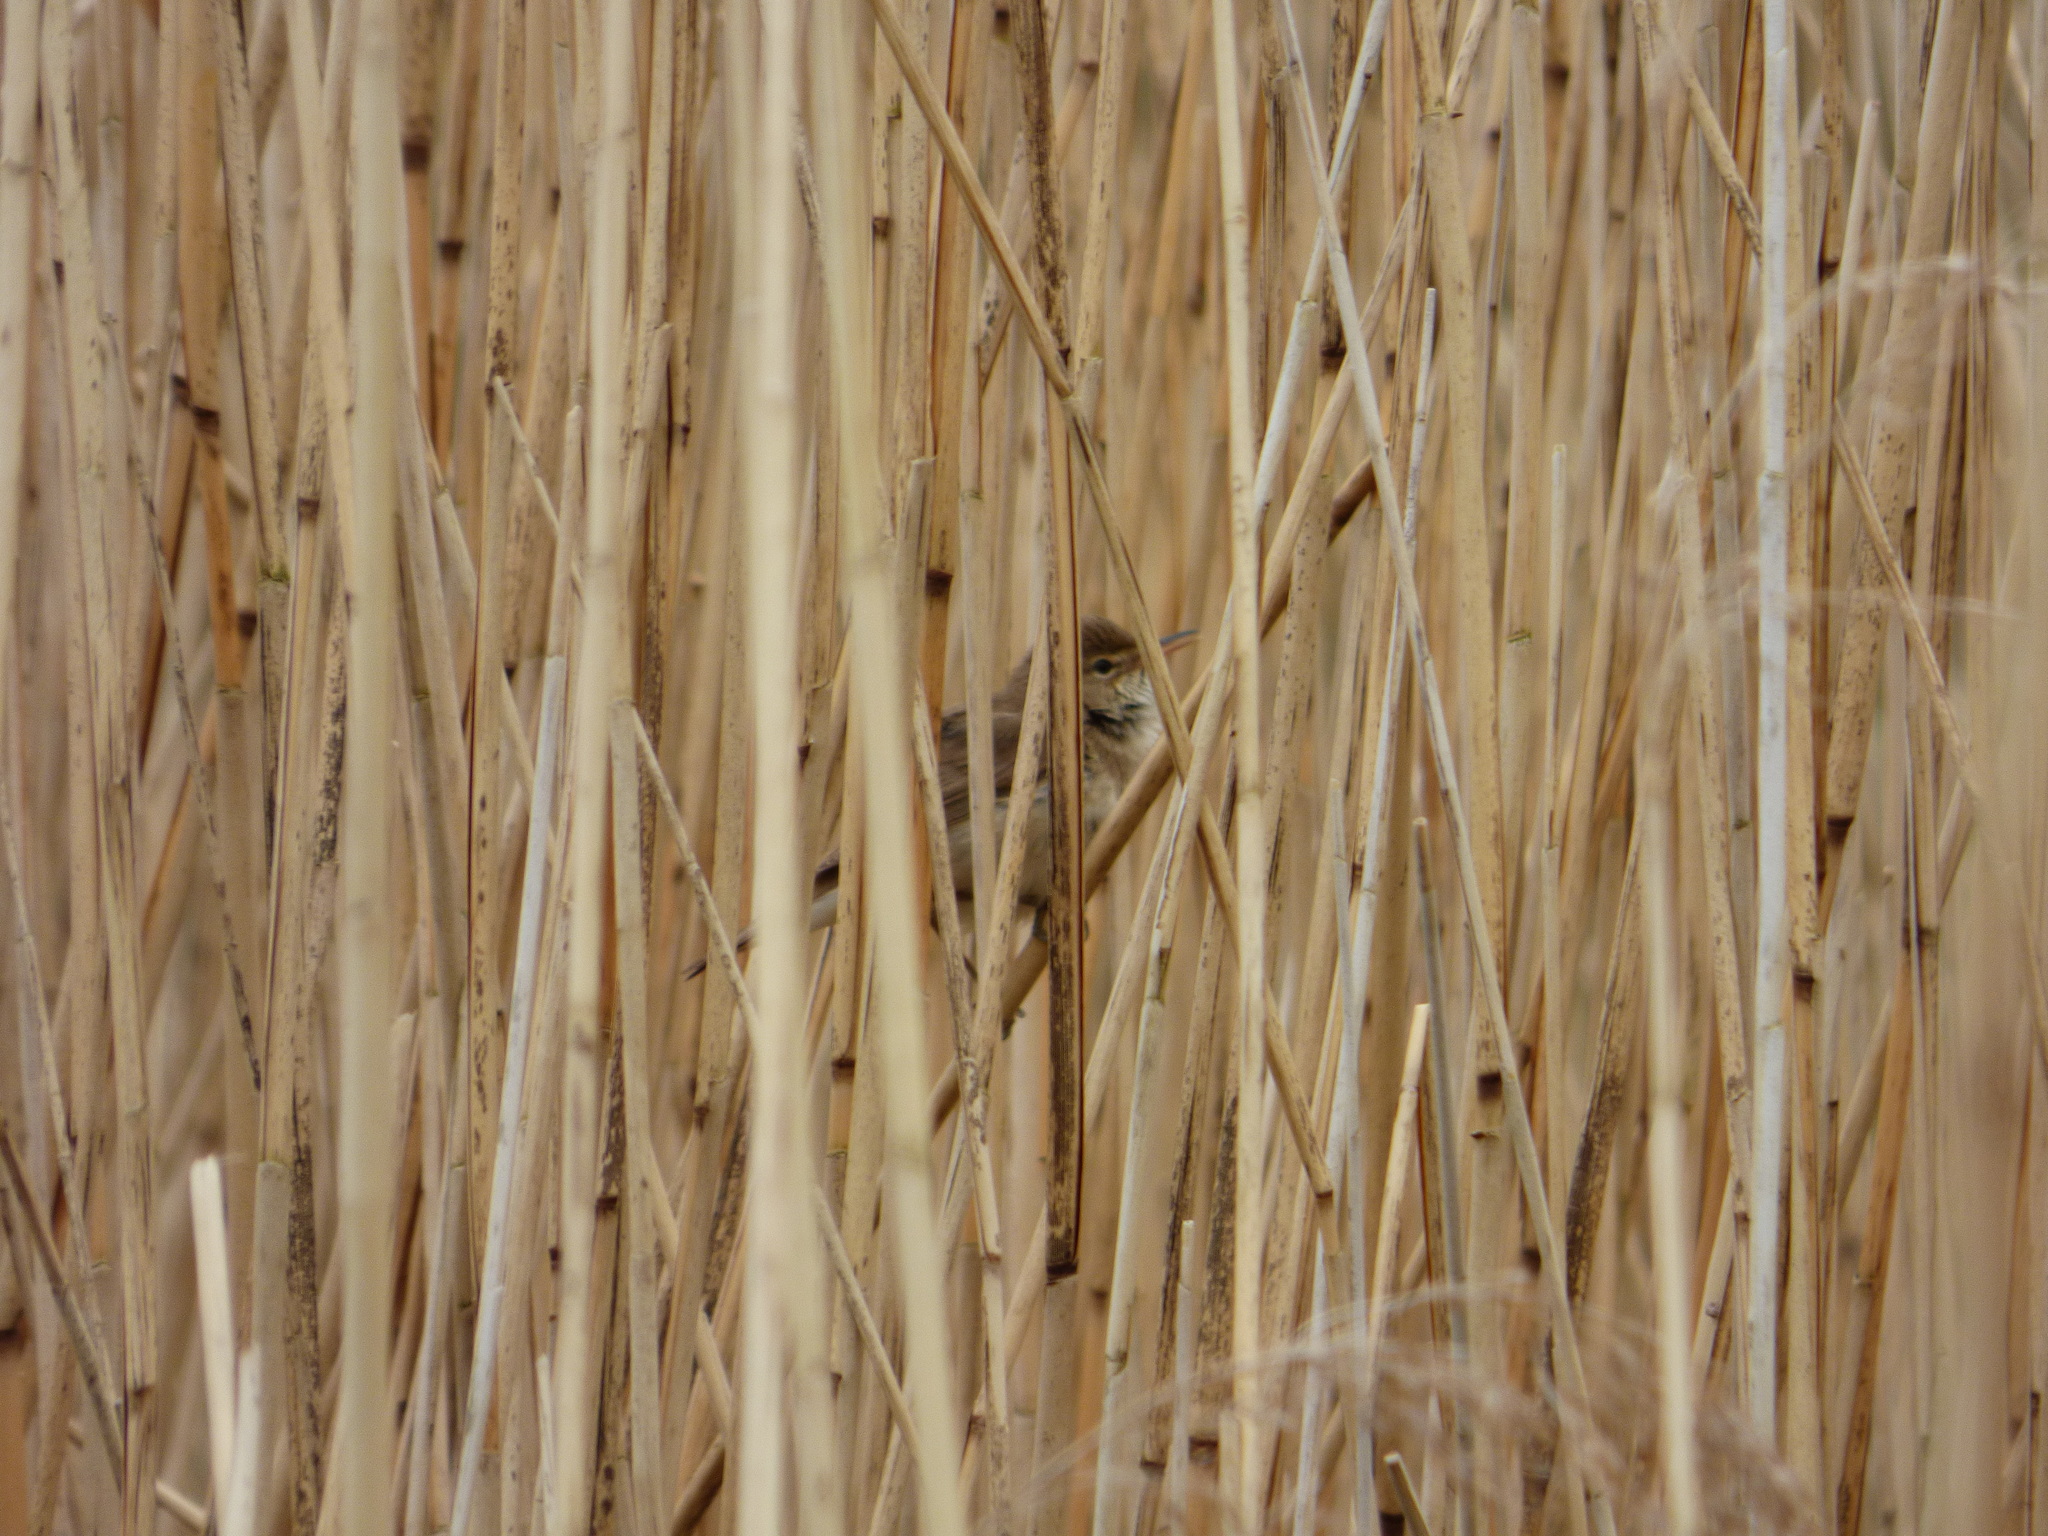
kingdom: Animalia
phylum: Chordata
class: Aves
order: Passeriformes
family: Acrocephalidae
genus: Acrocephalus
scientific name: Acrocephalus scirpaceus
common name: Eurasian reed warbler
